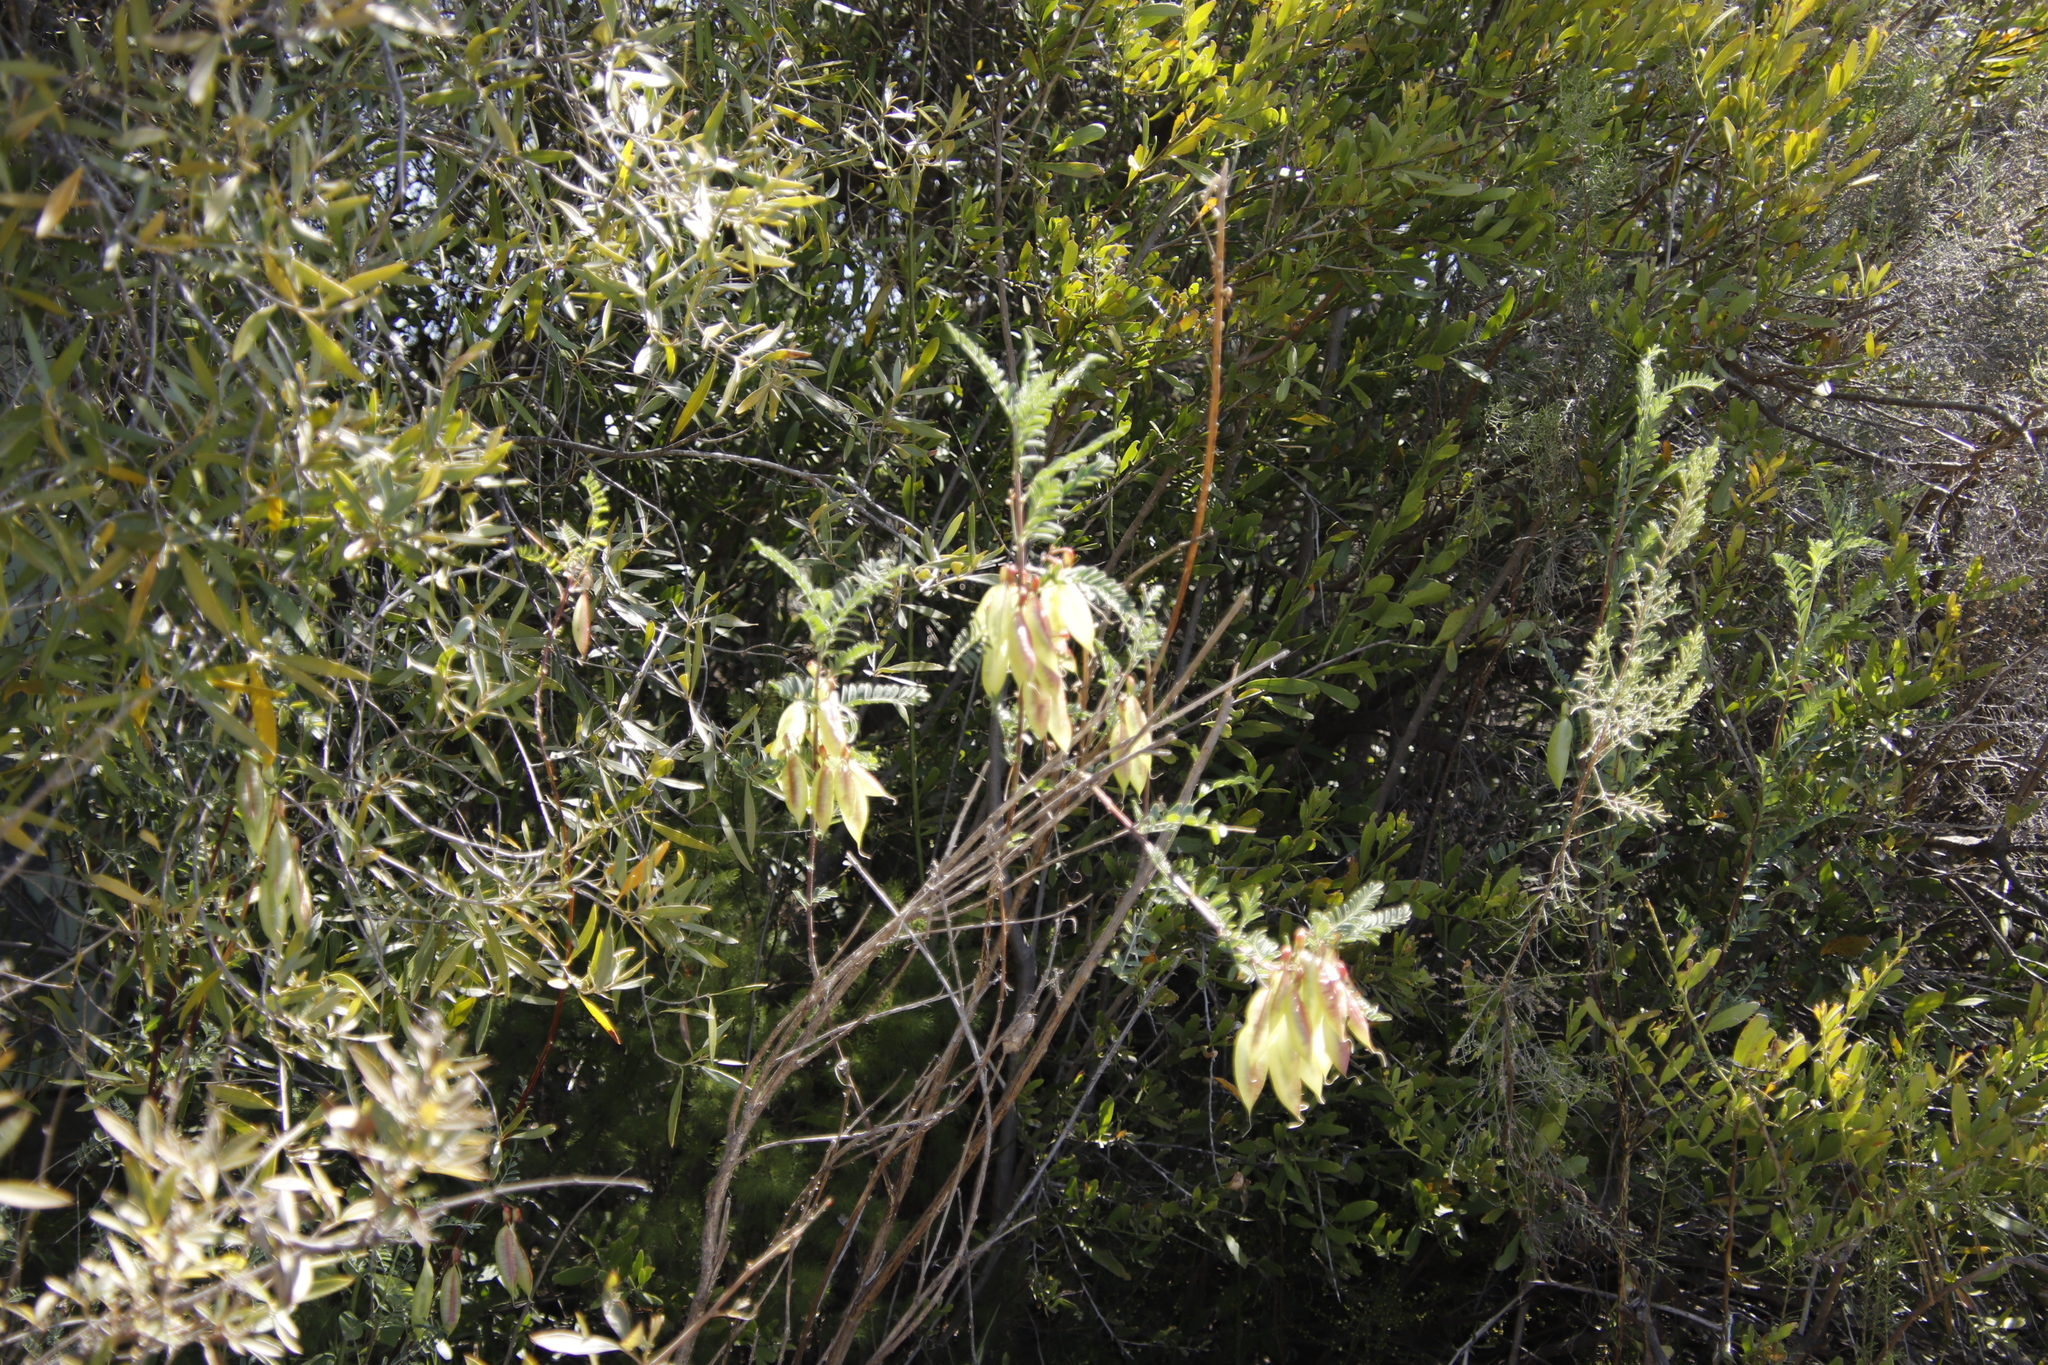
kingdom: Plantae
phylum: Tracheophyta
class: Magnoliopsida
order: Fabales
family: Fabaceae
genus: Lessertia
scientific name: Lessertia frutescens
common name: Balloon-pea
